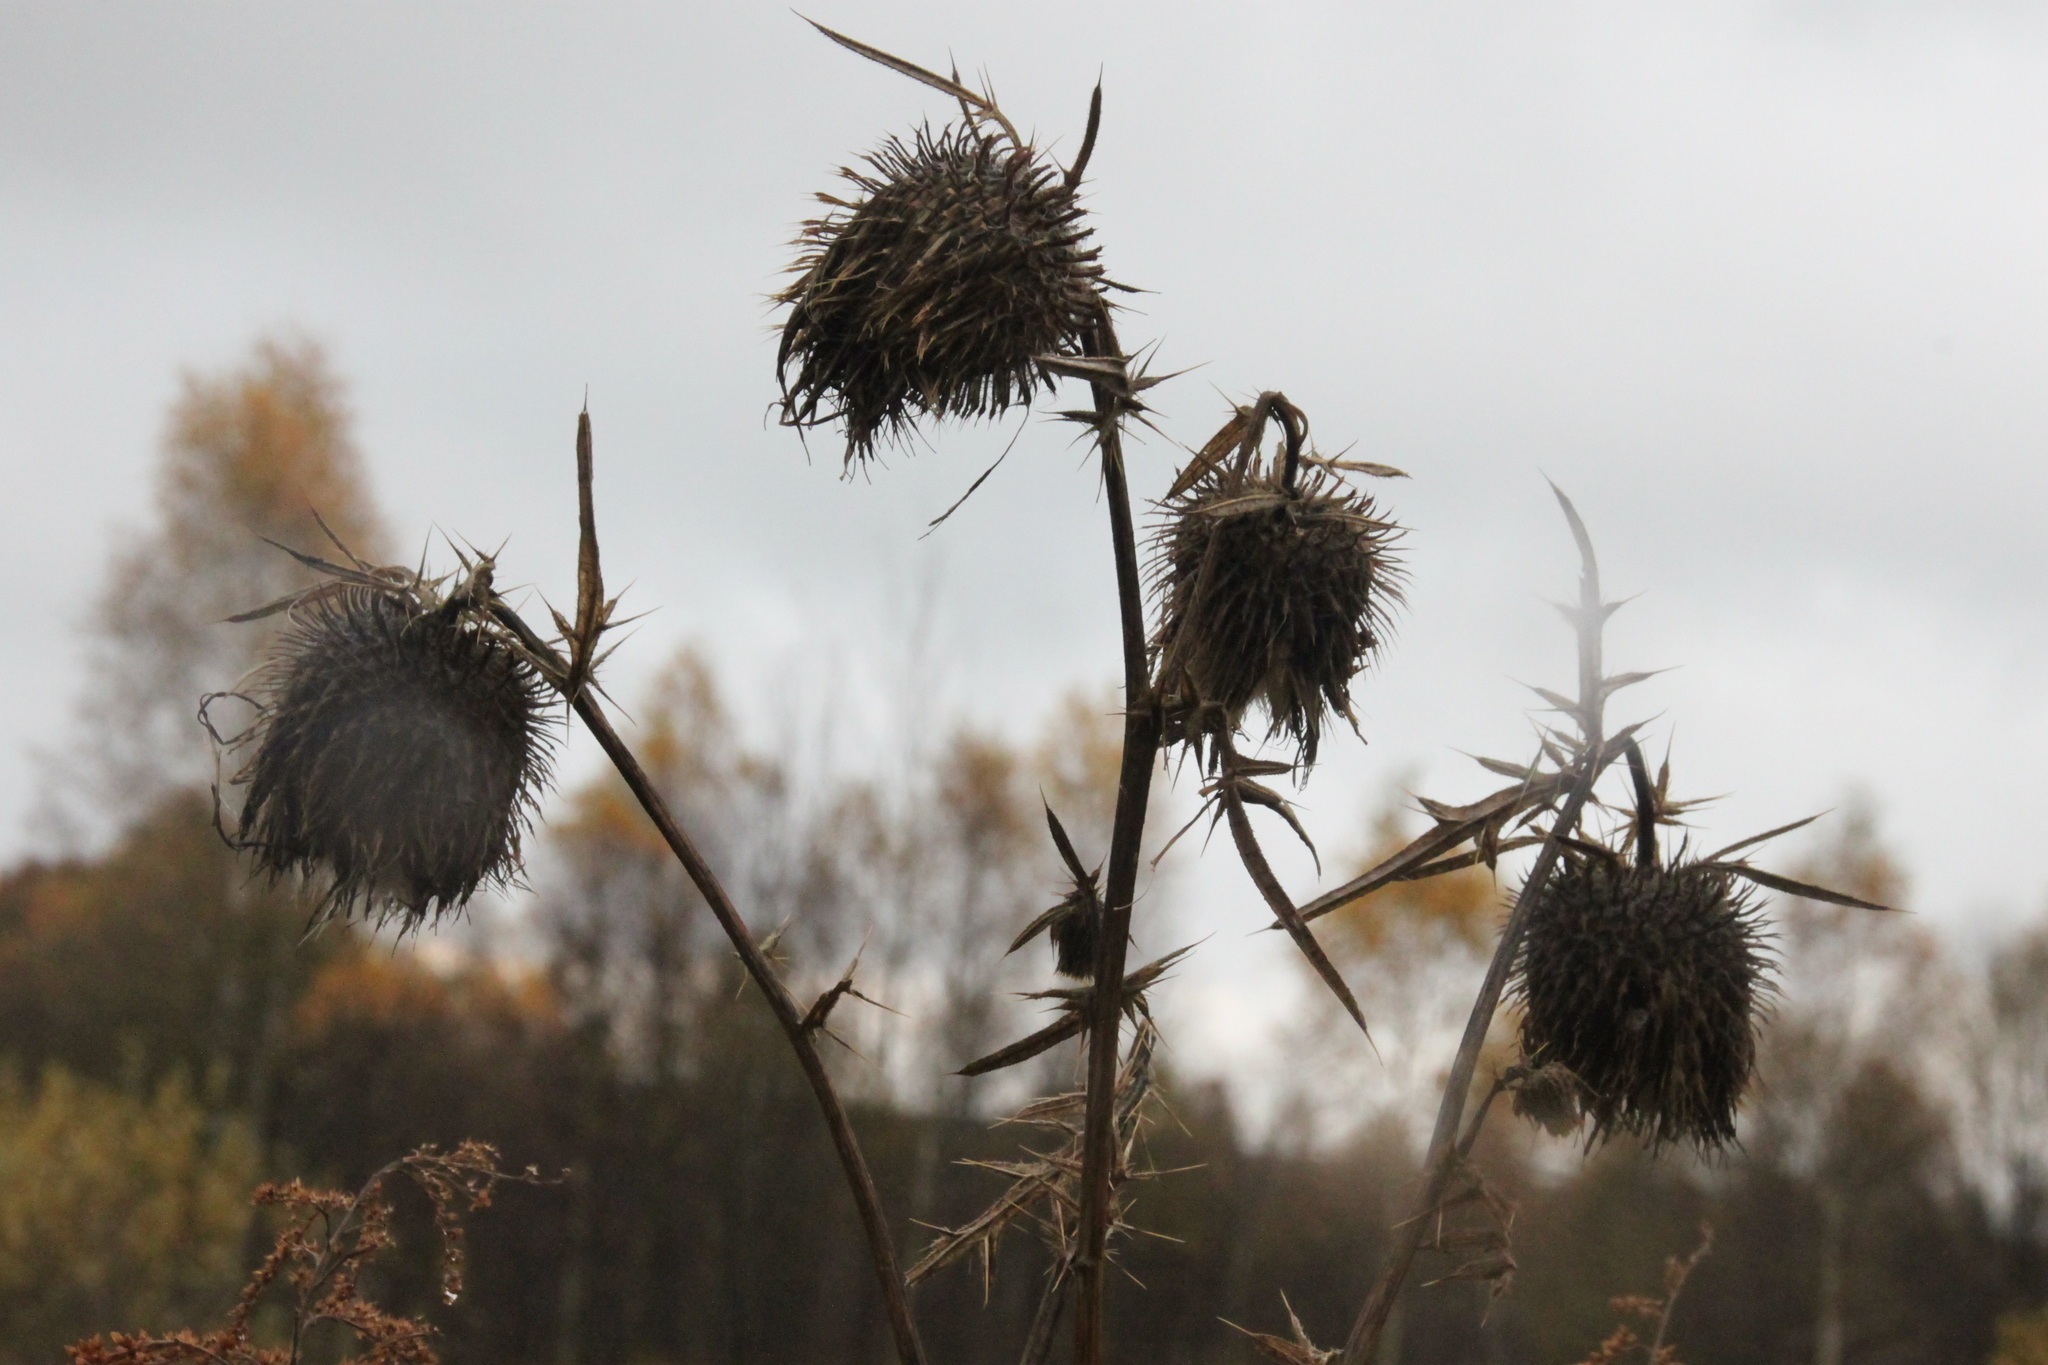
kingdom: Plantae
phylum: Tracheophyta
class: Magnoliopsida
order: Asterales
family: Asteraceae
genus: Cirsium
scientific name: Cirsium vulgare
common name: Bull thistle
